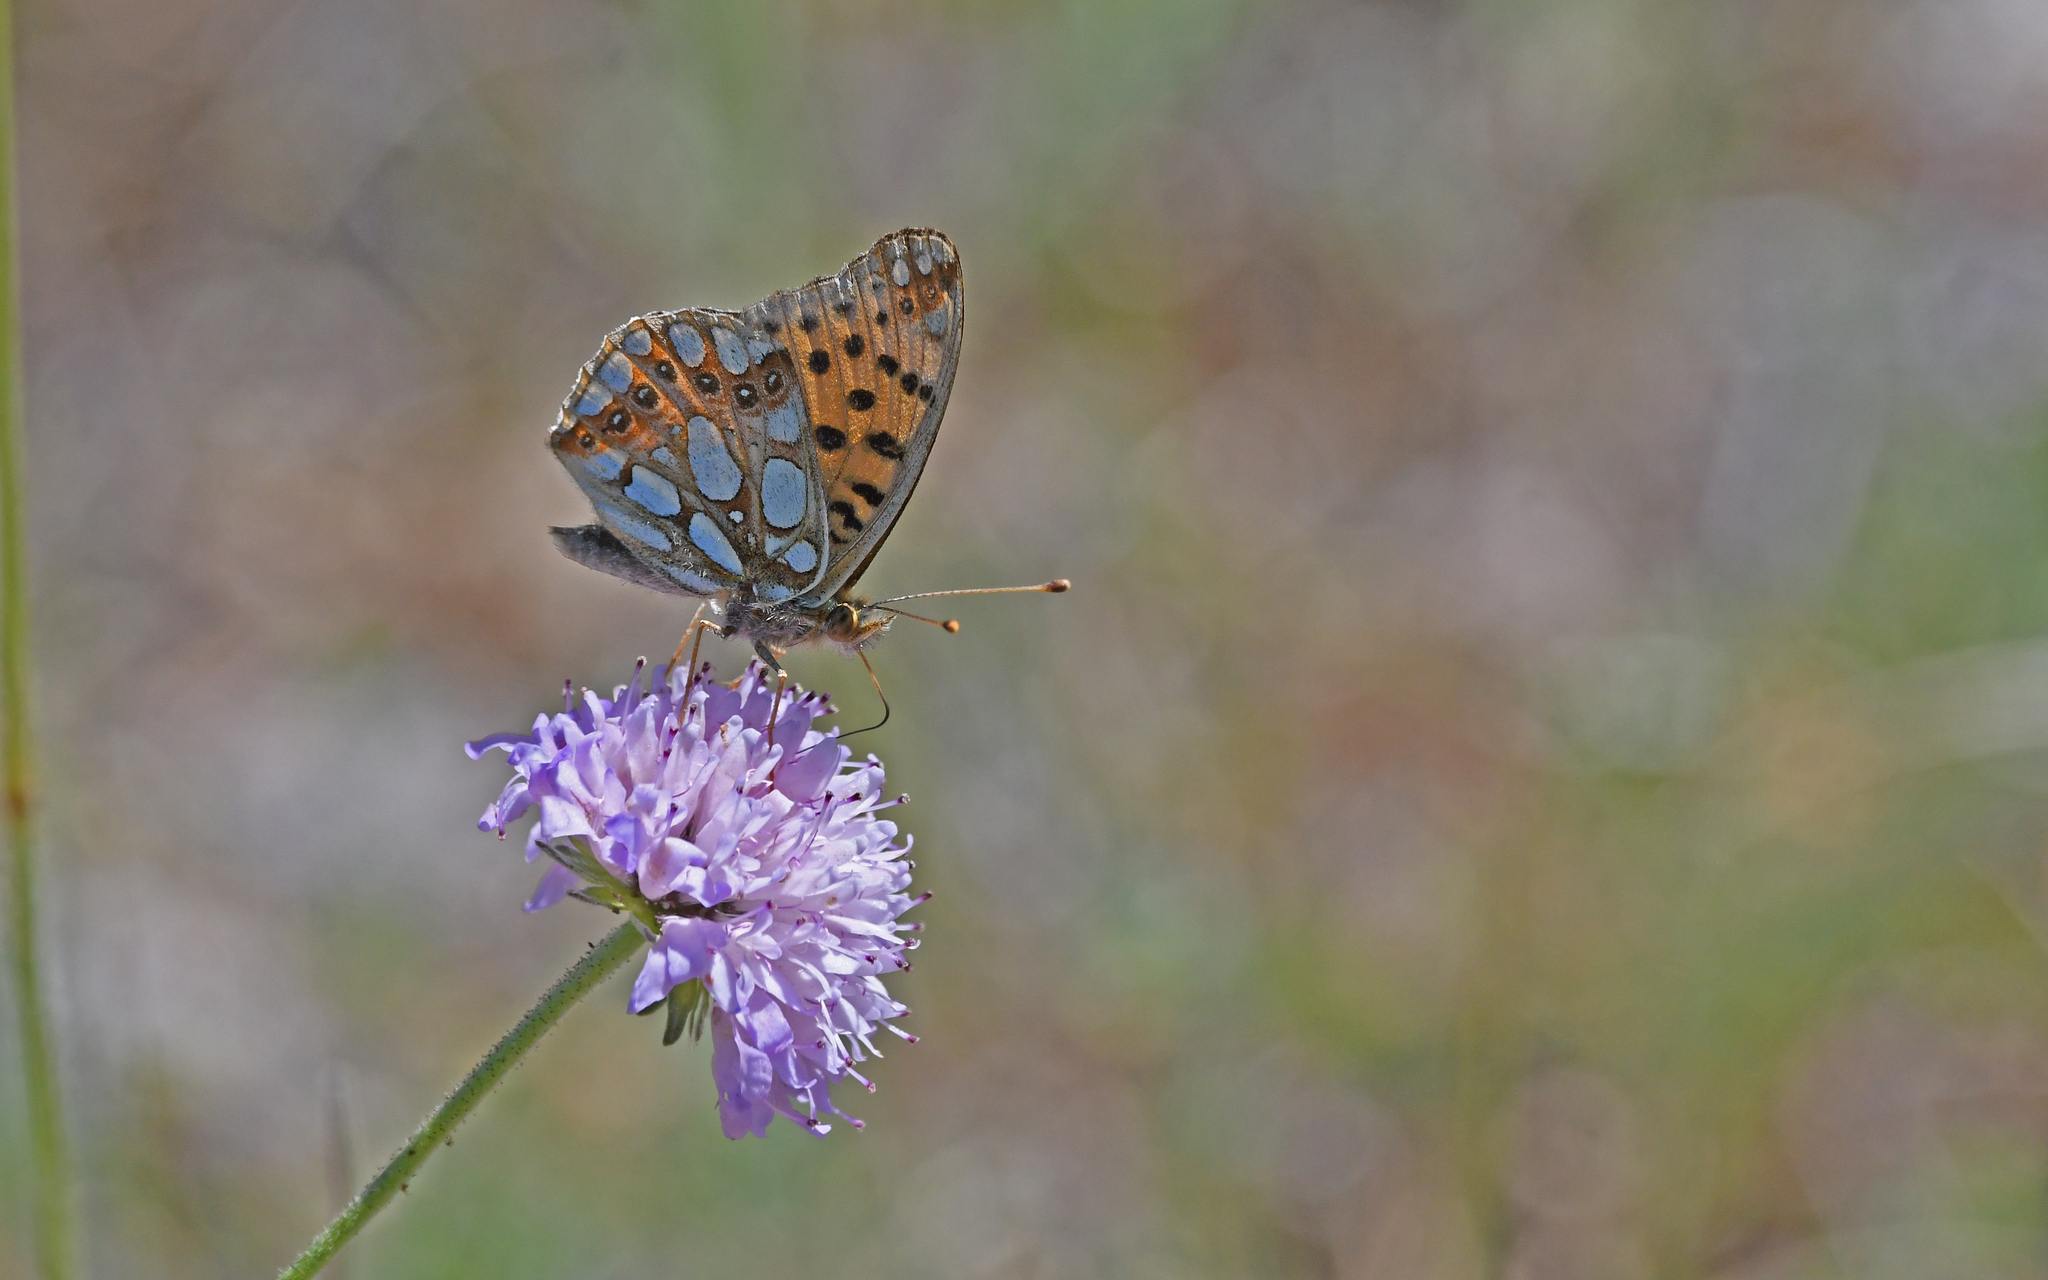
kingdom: Animalia
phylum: Arthropoda
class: Insecta
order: Lepidoptera
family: Nymphalidae
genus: Issoria
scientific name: Issoria lathonia
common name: Queen of spain fritillary
